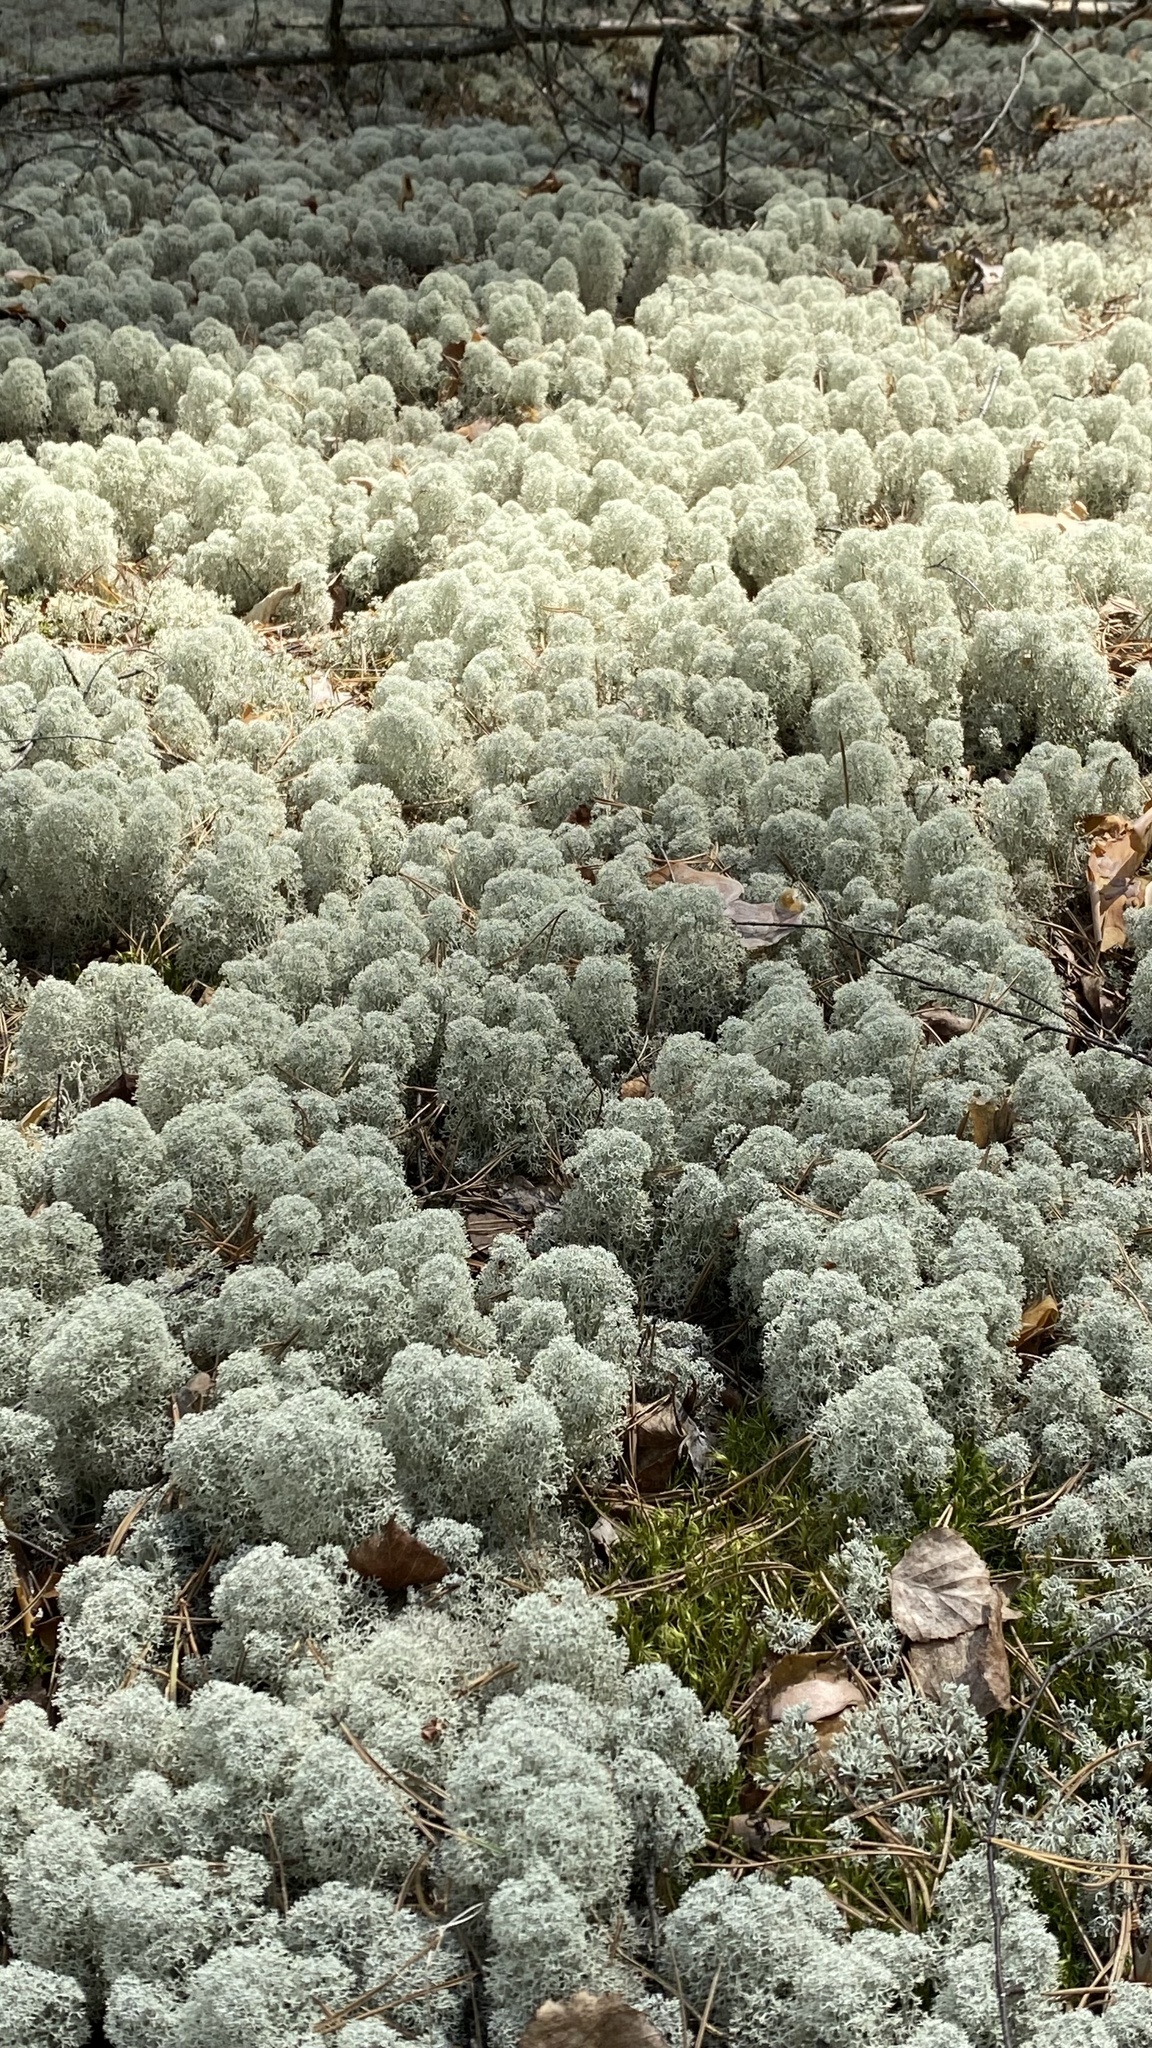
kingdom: Fungi
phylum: Ascomycota
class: Lecanoromycetes
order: Lecanorales
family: Cladoniaceae
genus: Cladonia
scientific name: Cladonia stellaris
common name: Star-tipped reindeer lichen
